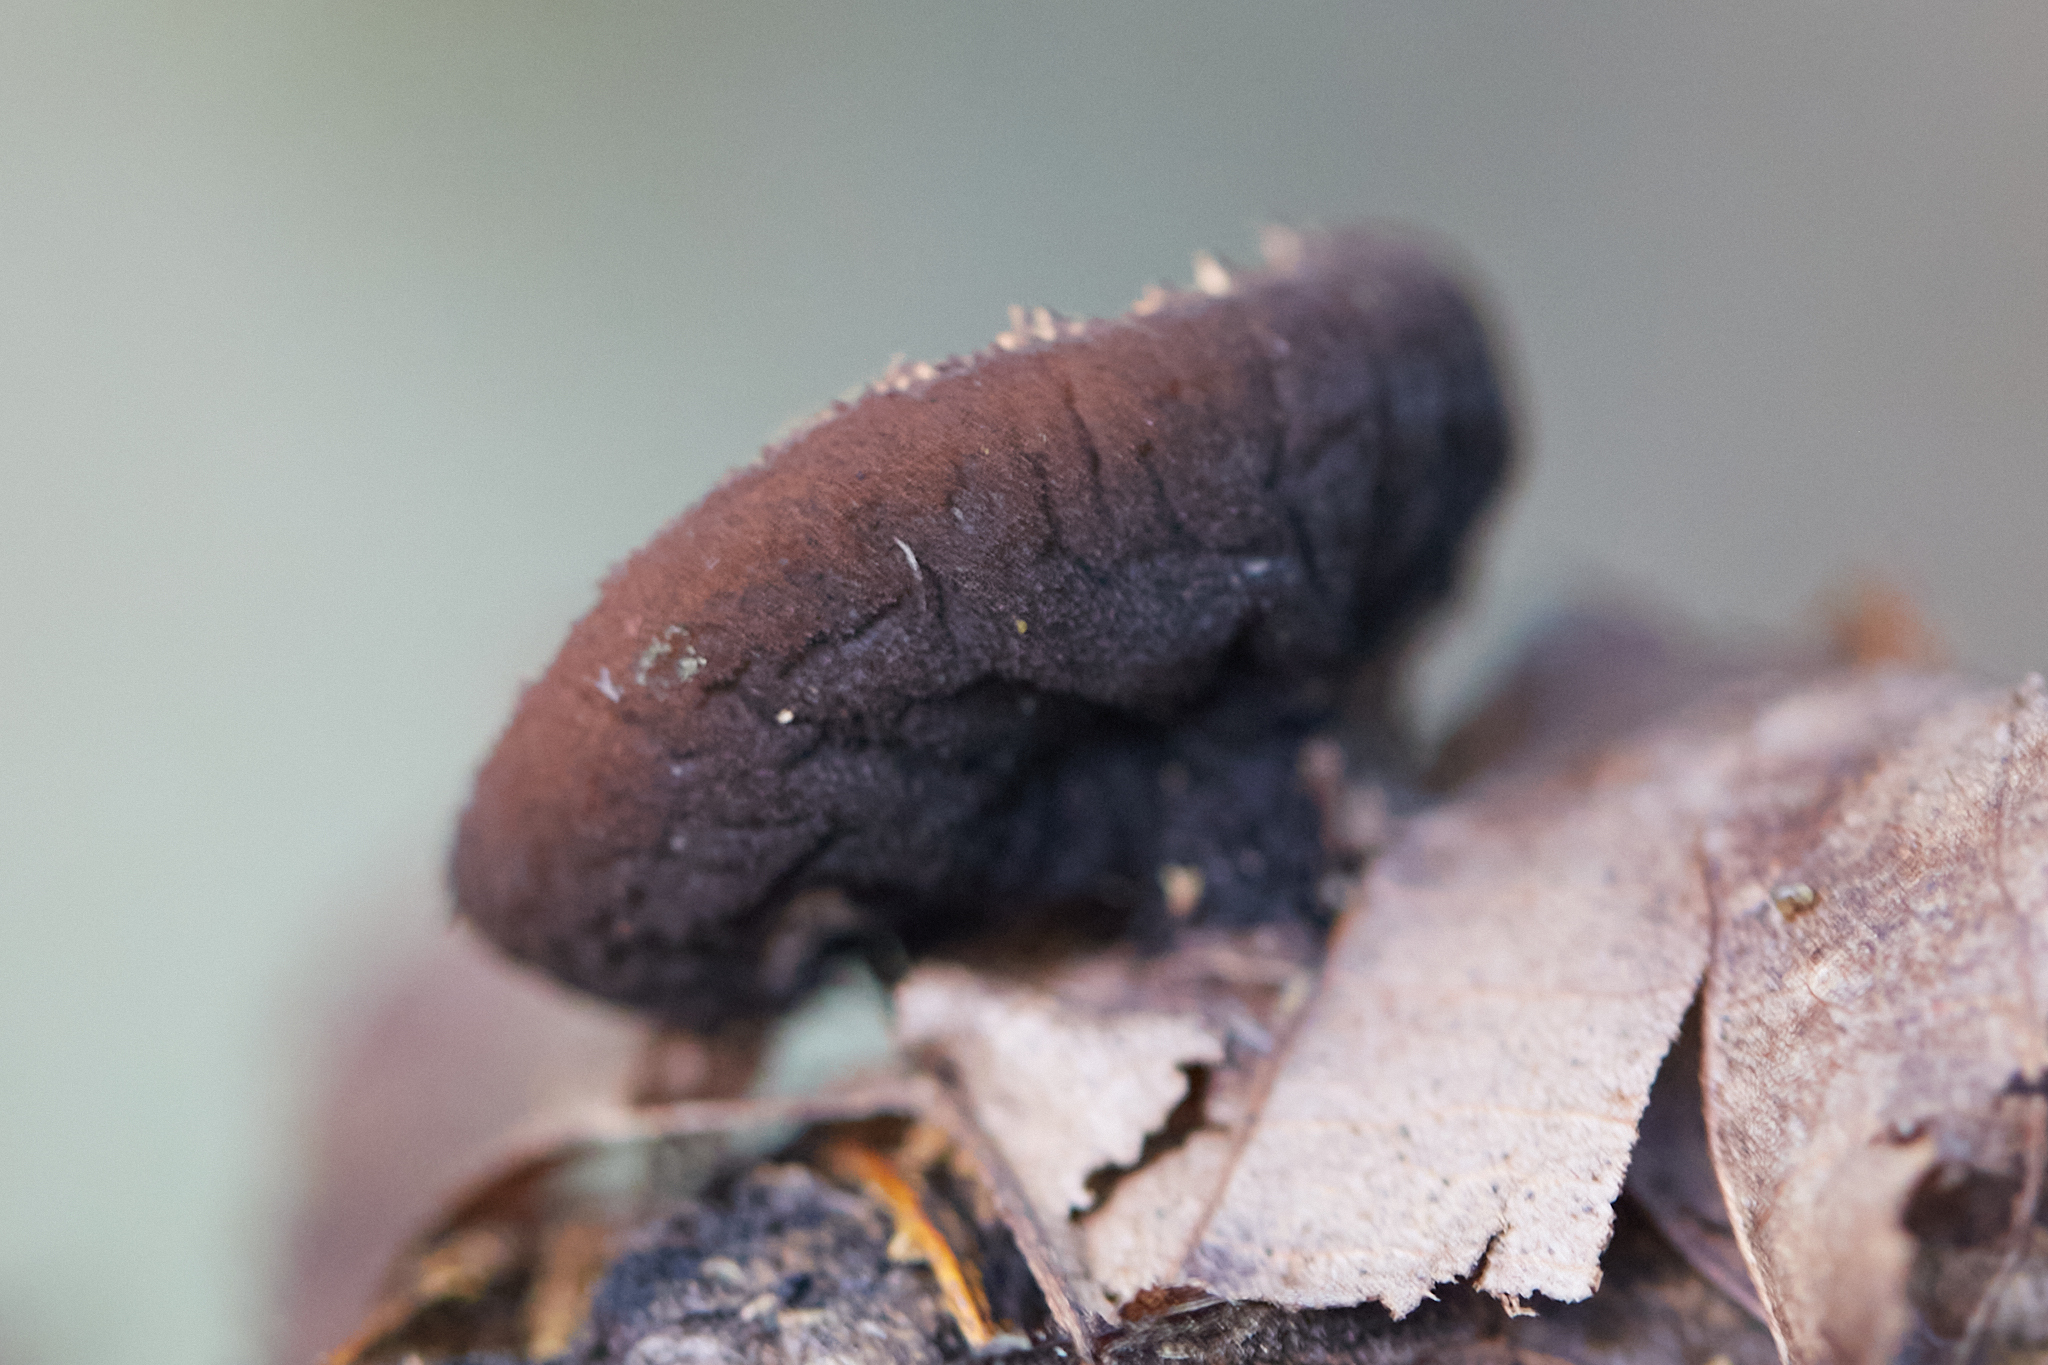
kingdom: Fungi
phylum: Ascomycota
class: Pezizomycetes
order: Pezizales
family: Sarcosomataceae
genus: Galiella
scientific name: Galiella rufa
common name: Hairy rubber cup
